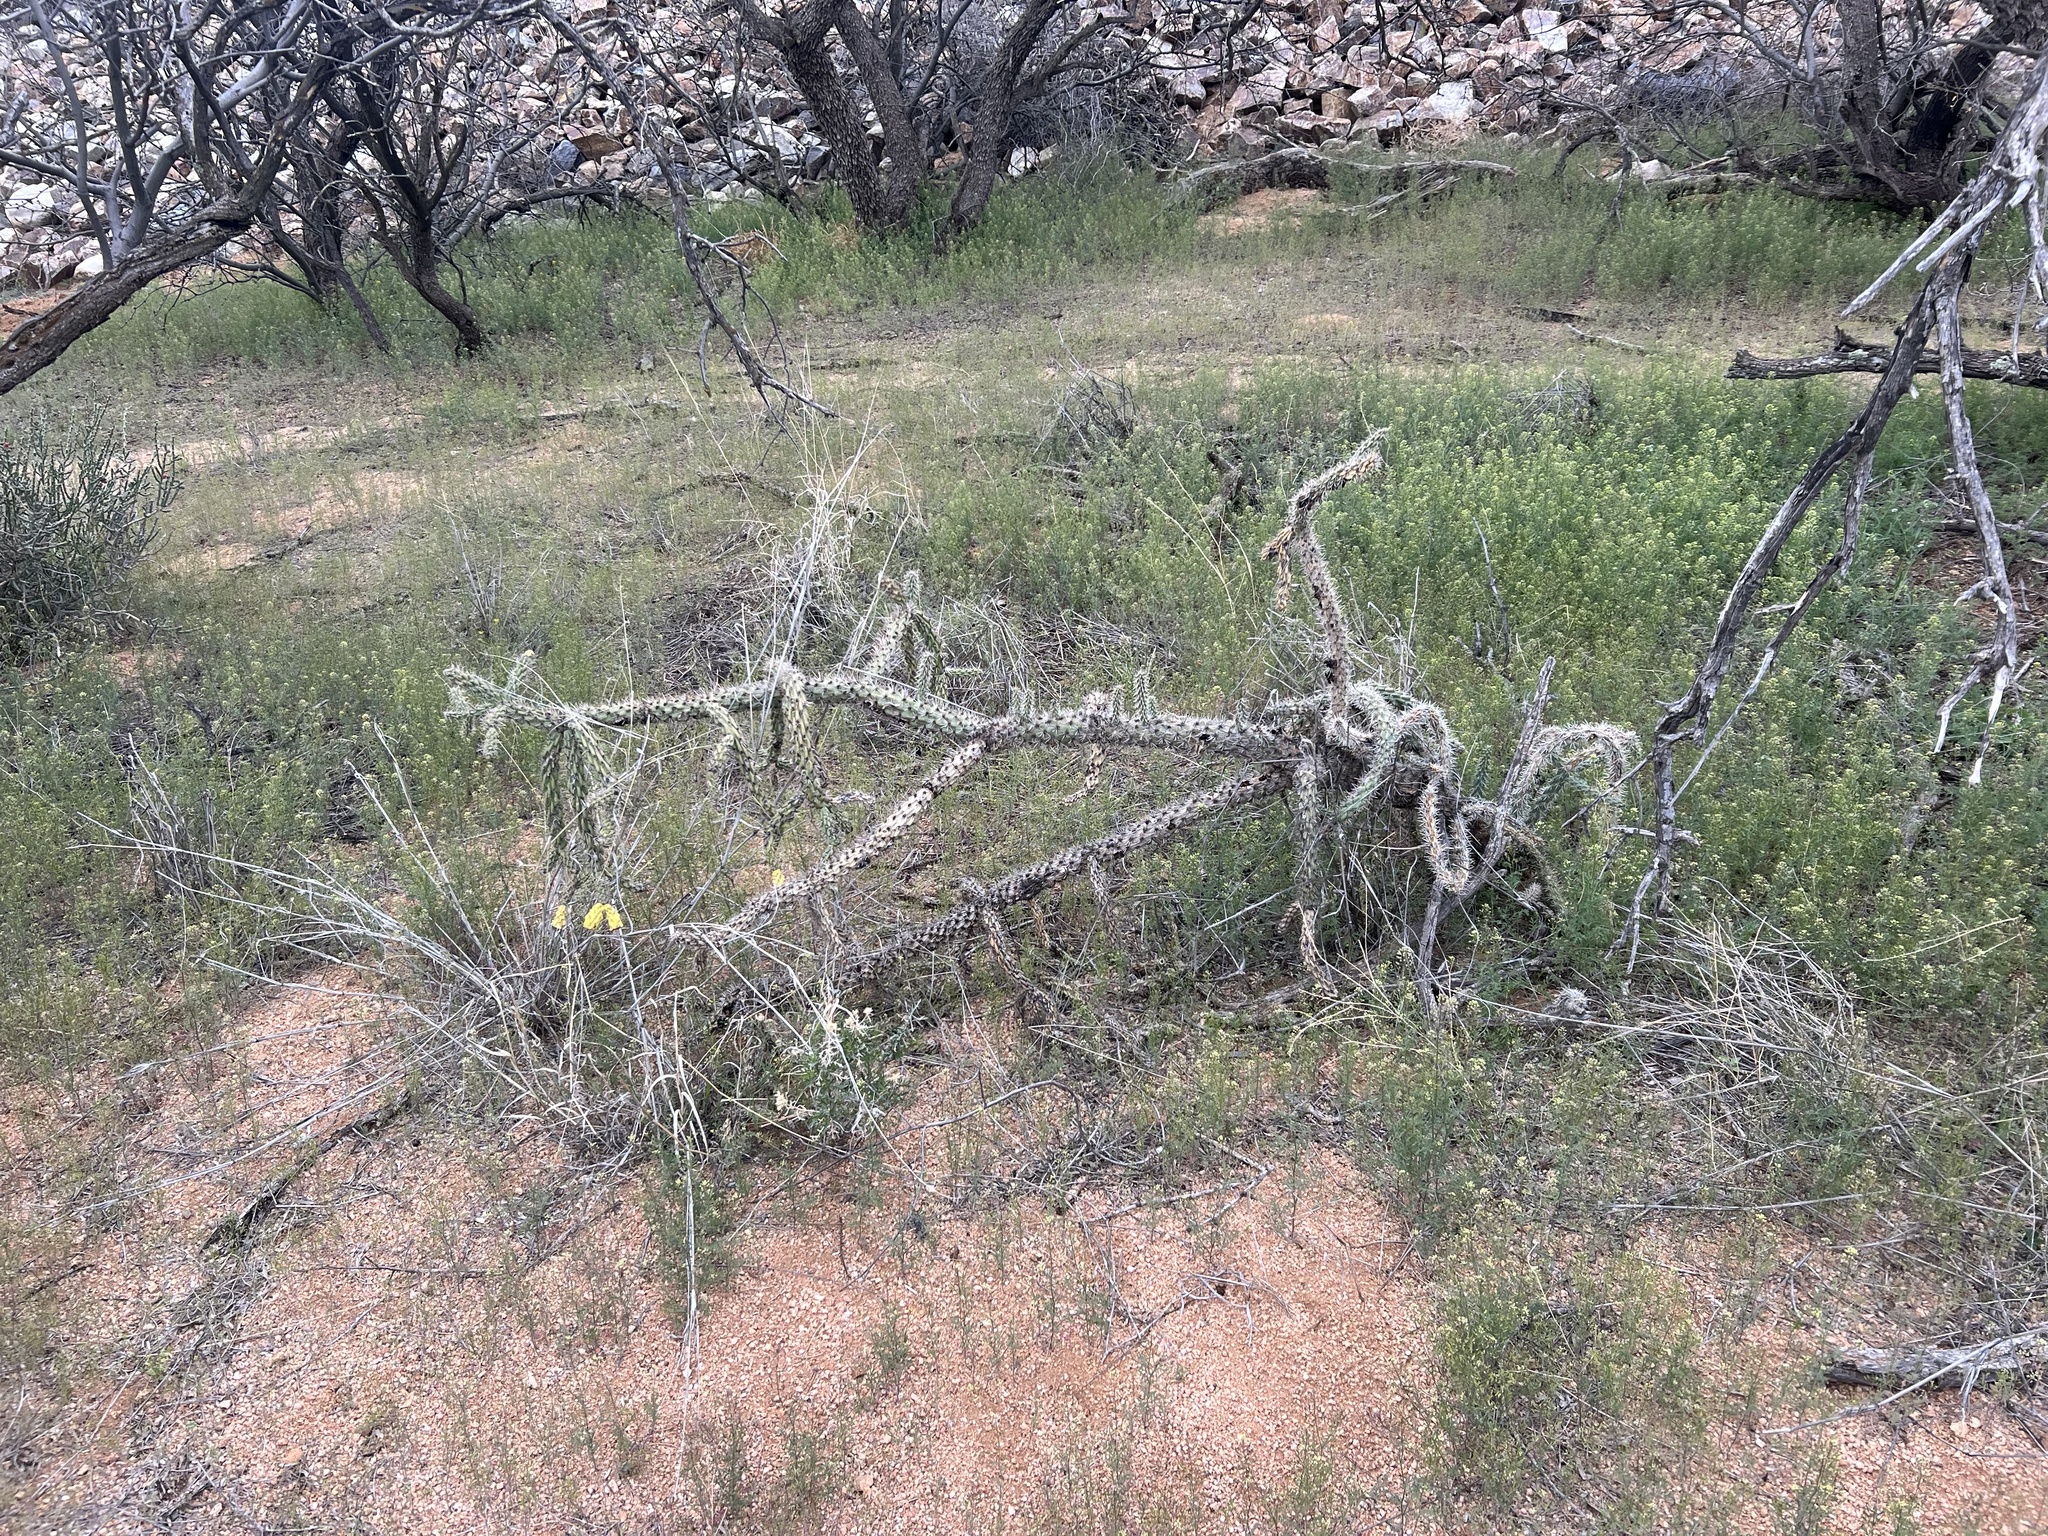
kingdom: Plantae
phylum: Tracheophyta
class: Magnoliopsida
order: Caryophyllales
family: Cactaceae
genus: Cylindropuntia
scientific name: Cylindropuntia imbricata
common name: Candelabrum cactus
